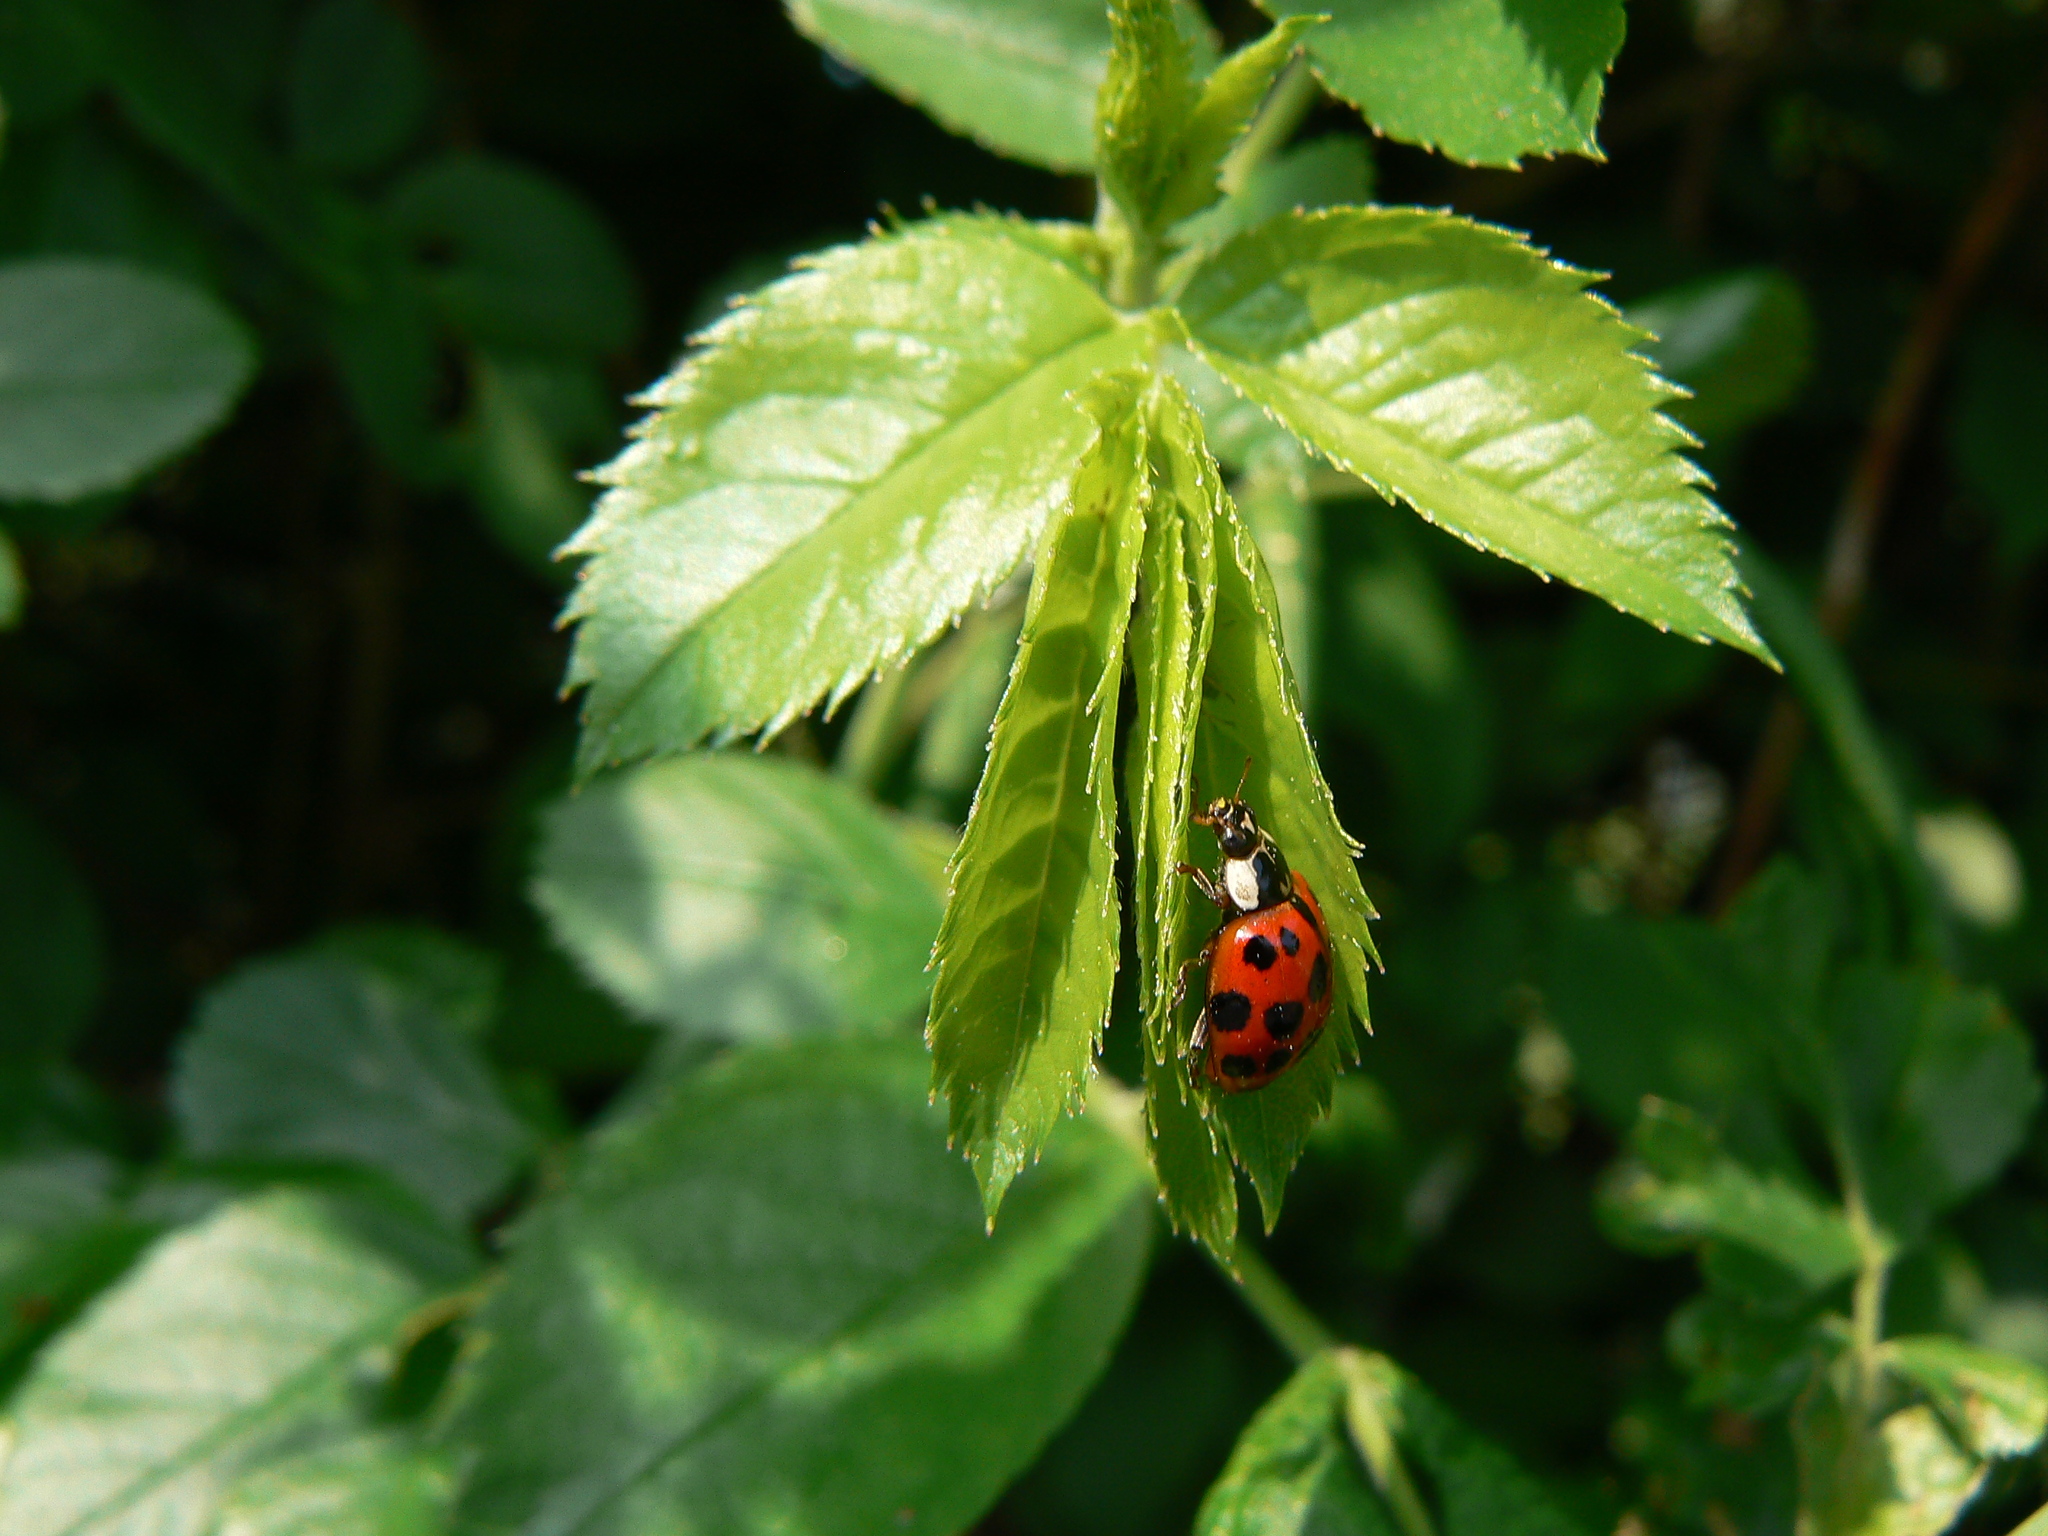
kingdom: Animalia
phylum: Arthropoda
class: Insecta
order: Coleoptera
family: Coccinellidae
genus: Harmonia
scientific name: Harmonia axyridis
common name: Harlequin ladybird
